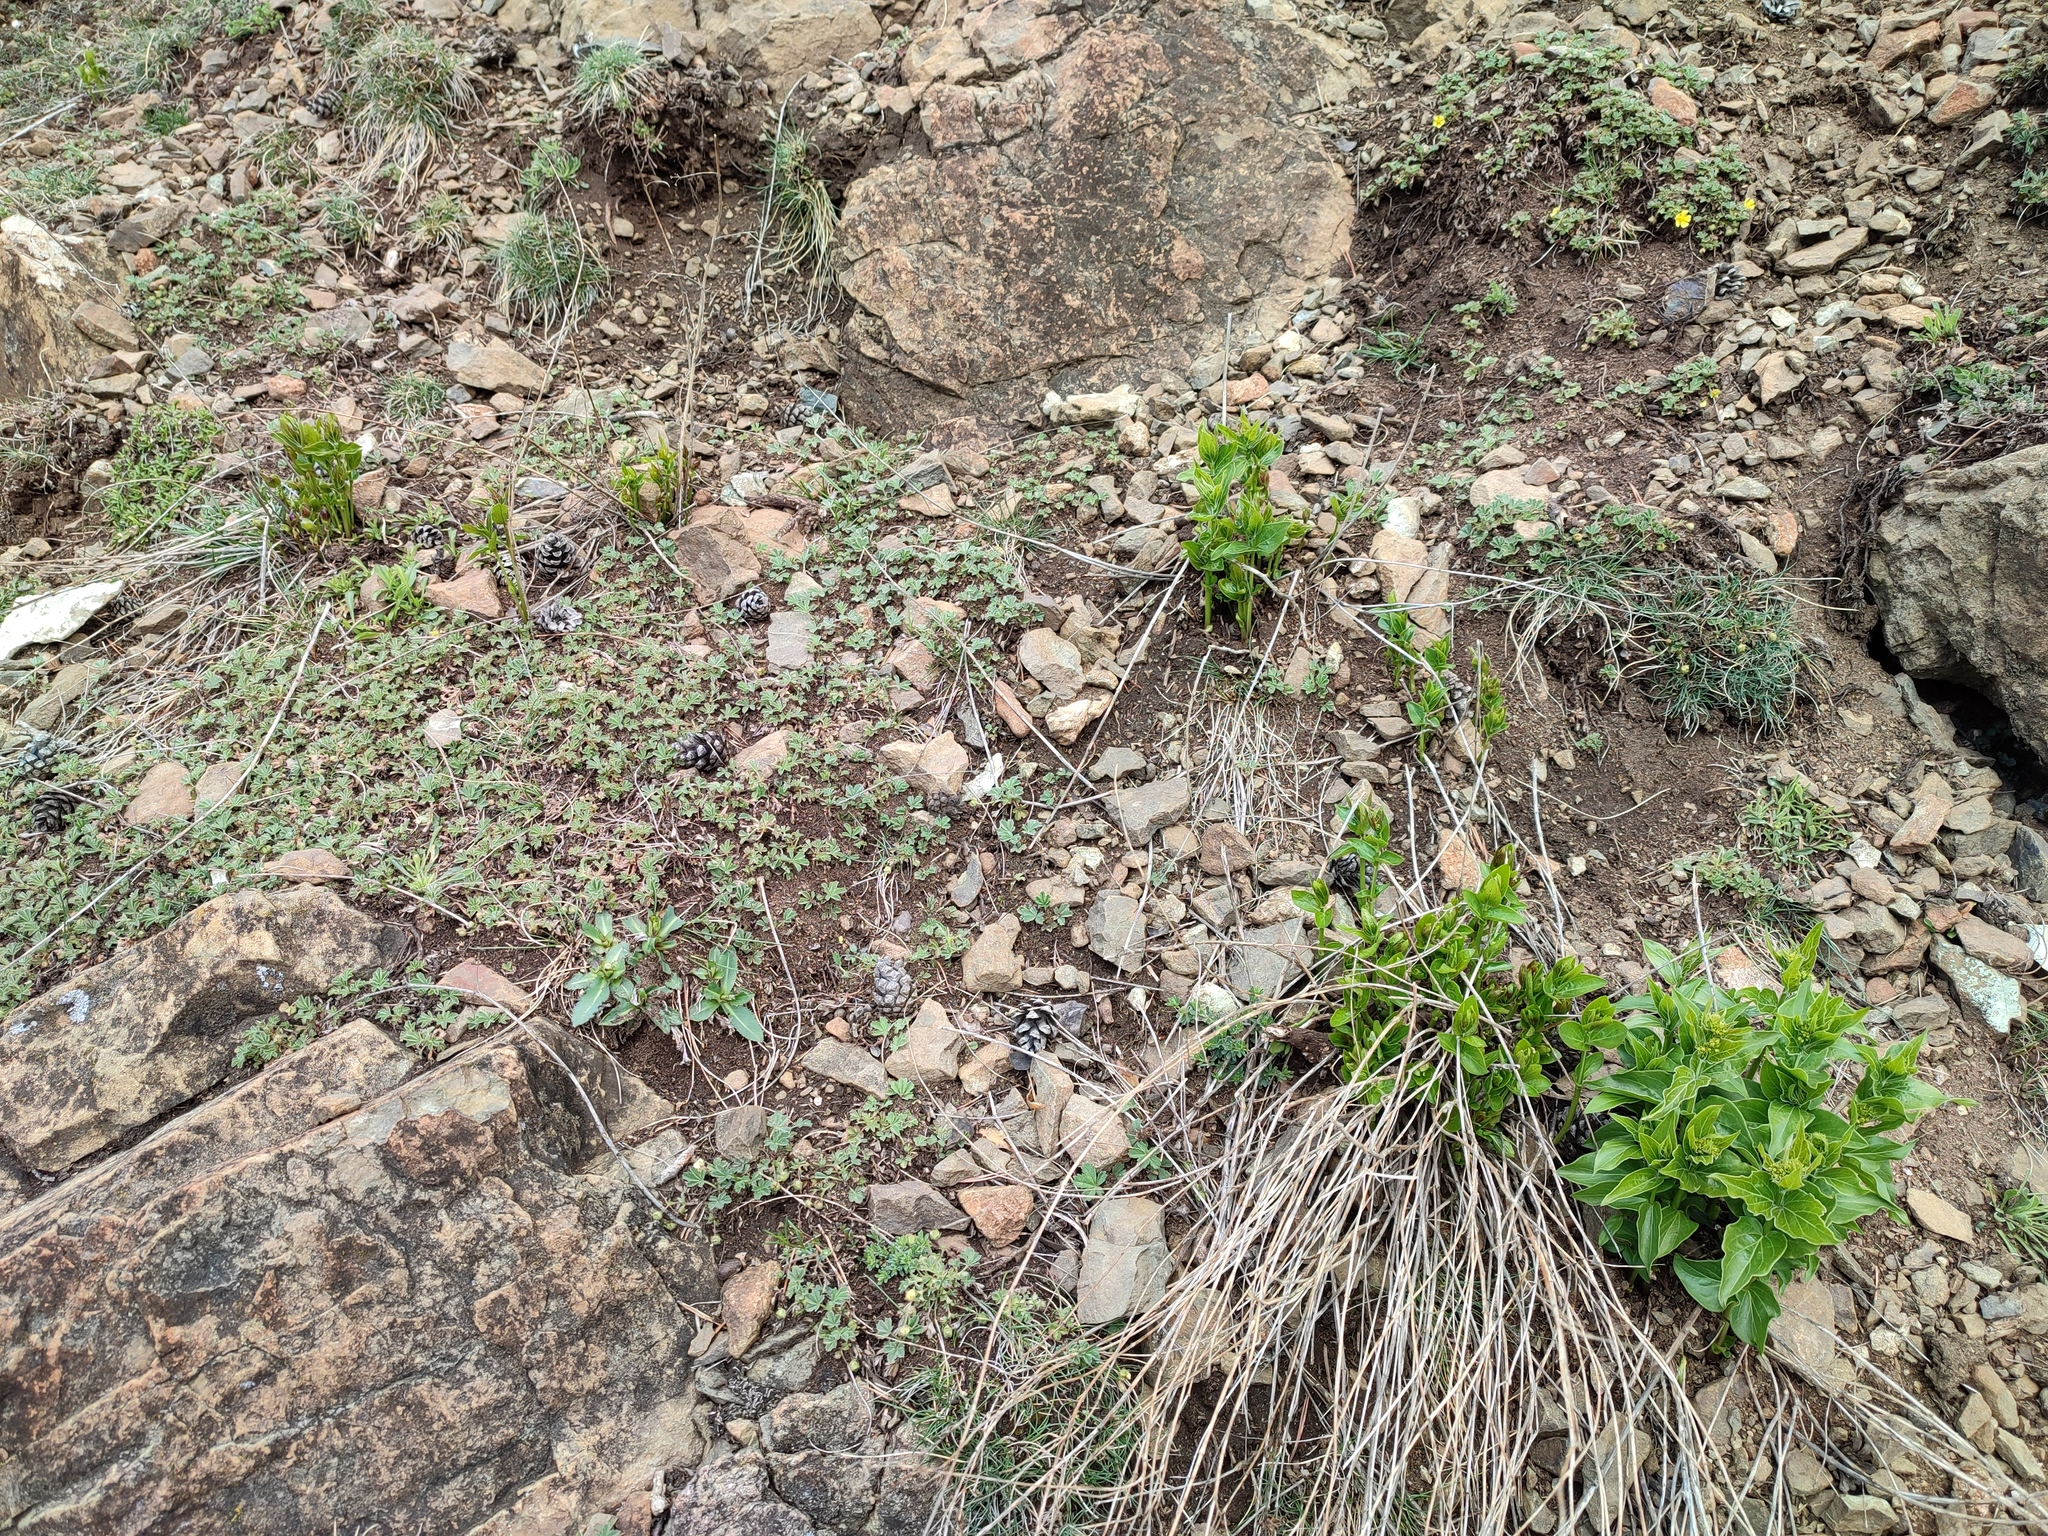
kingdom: Plantae
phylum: Tracheophyta
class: Magnoliopsida
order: Gentianales
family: Apocynaceae
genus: Vincetoxicum
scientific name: Vincetoxicum hirundinaria
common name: White swallowwort
